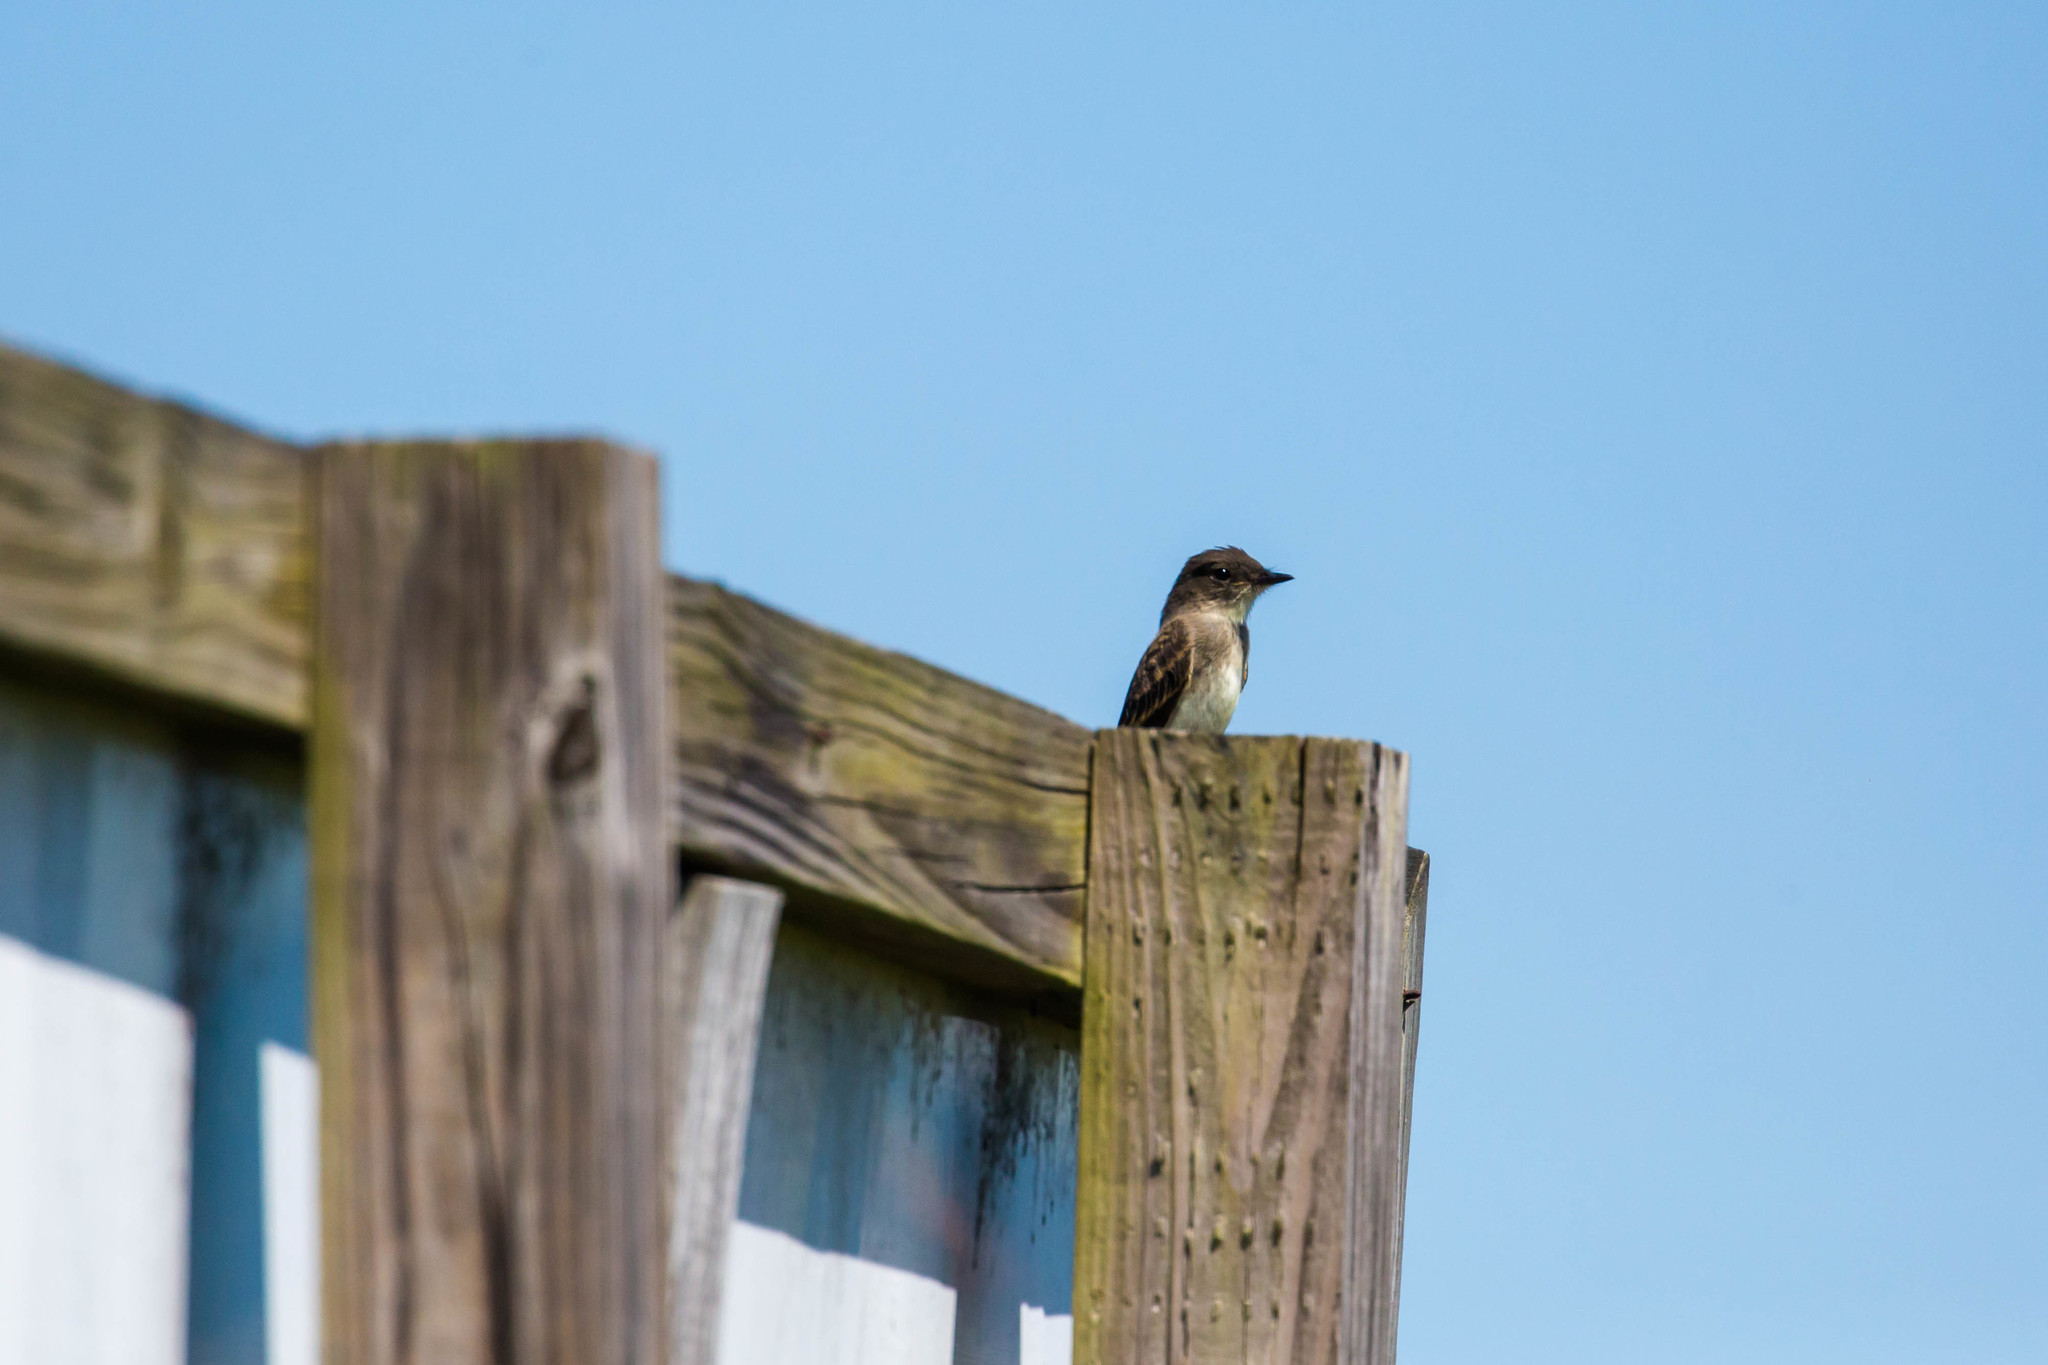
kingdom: Animalia
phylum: Chordata
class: Aves
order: Passeriformes
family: Tyrannidae
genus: Sayornis
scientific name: Sayornis phoebe
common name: Eastern phoebe
